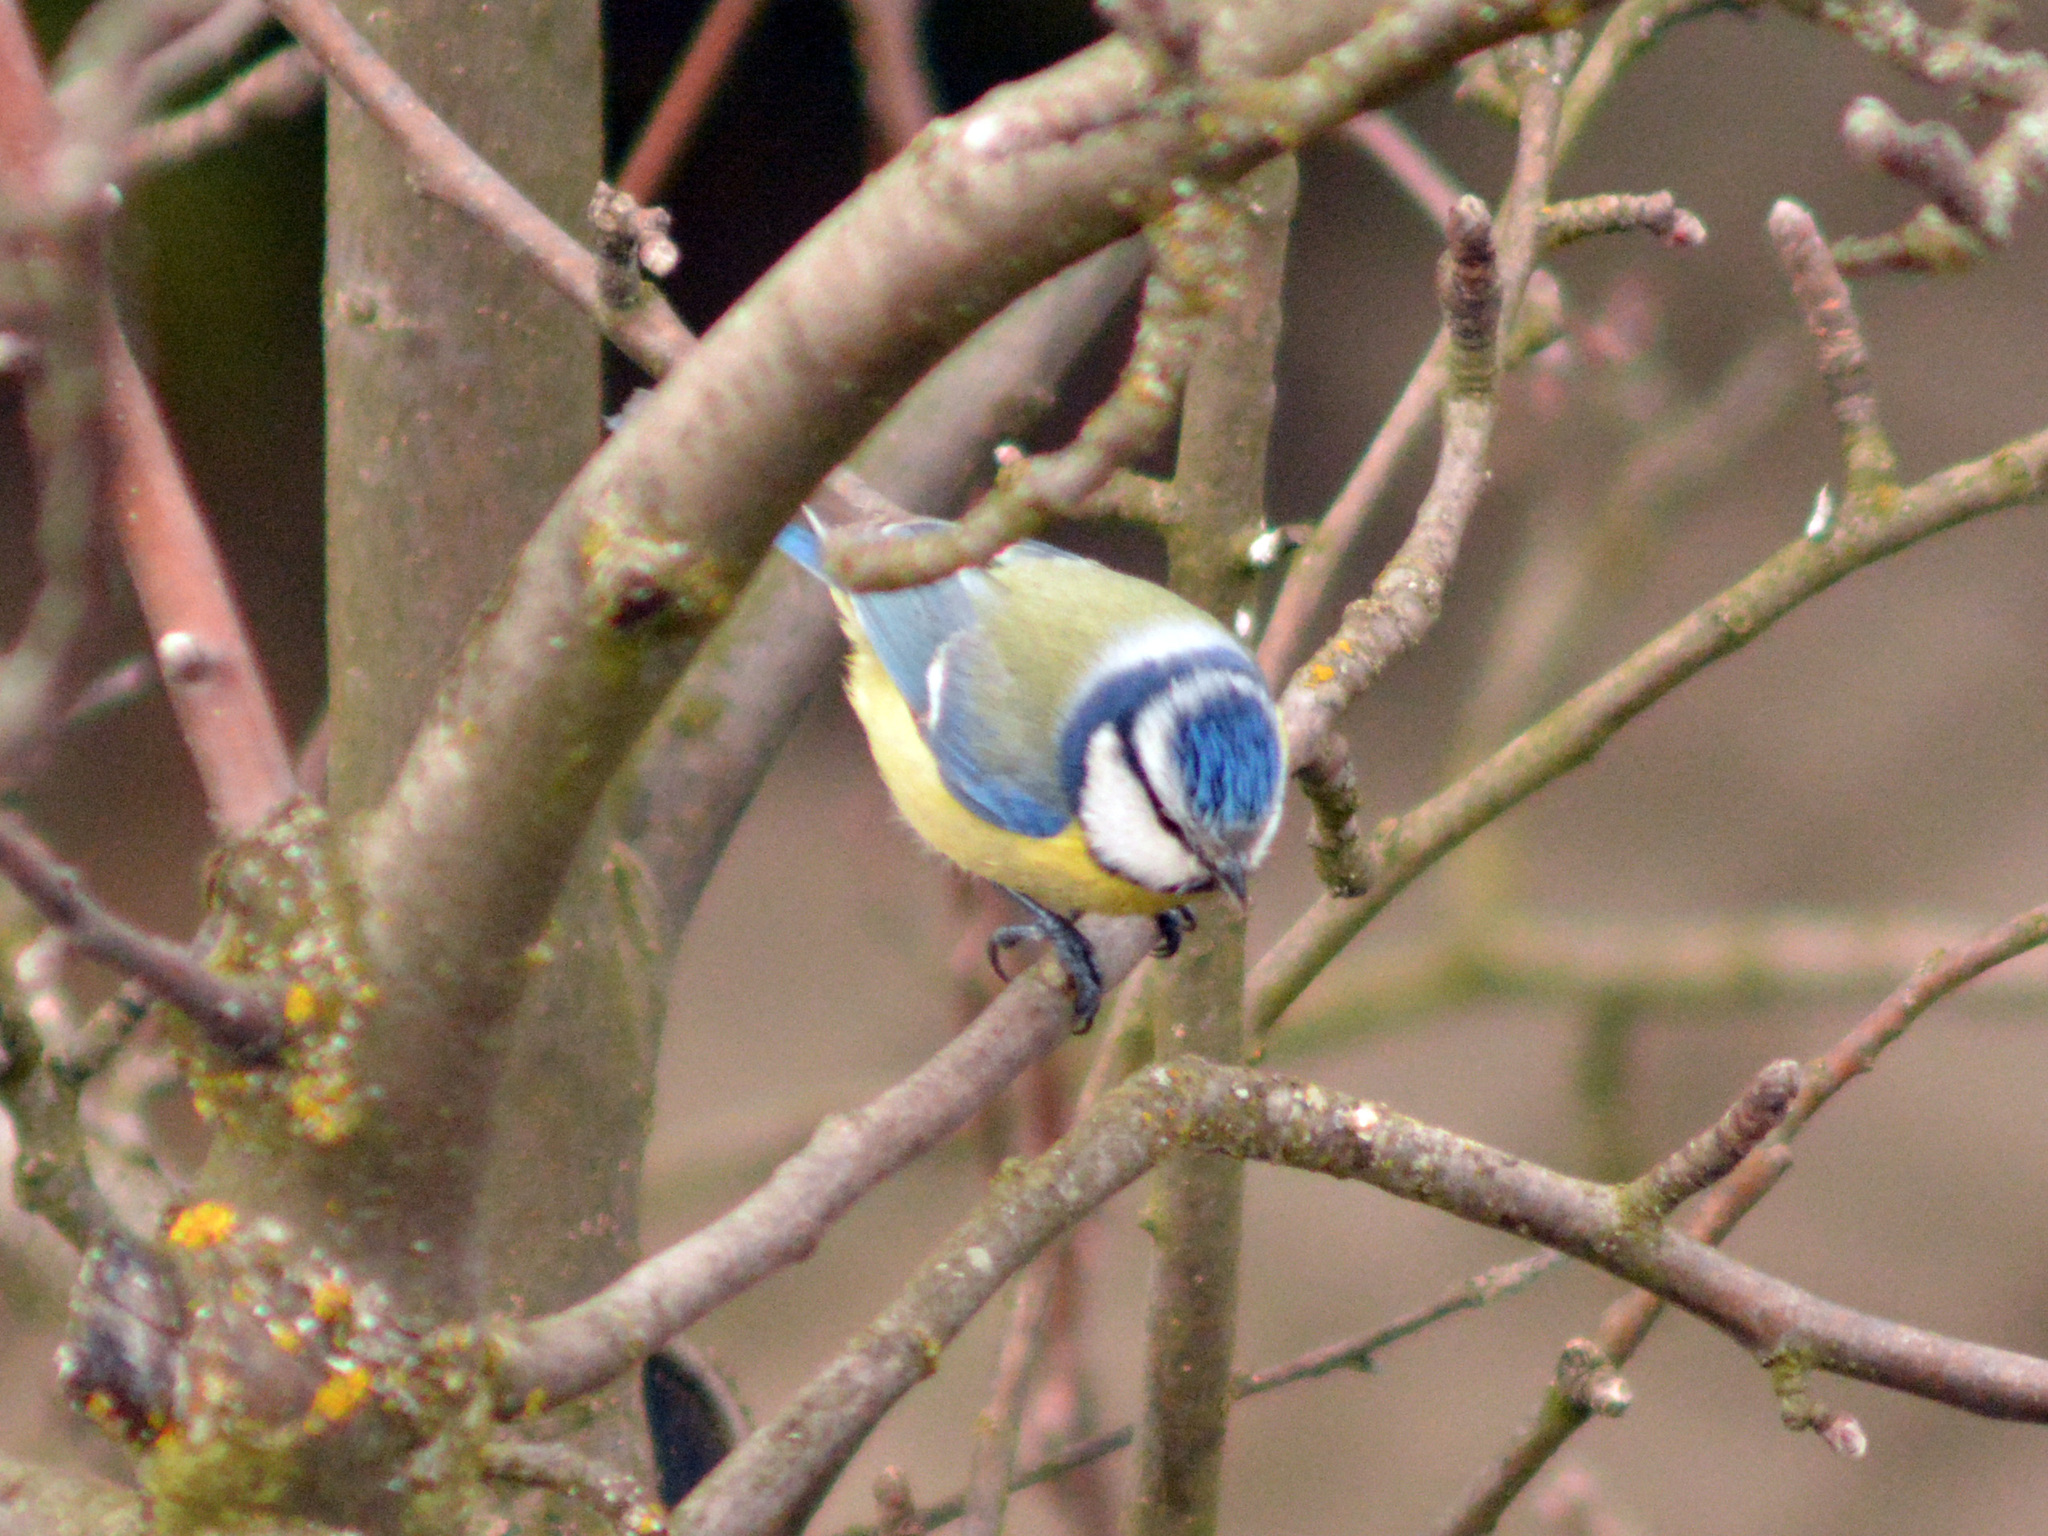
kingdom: Animalia
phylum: Chordata
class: Aves
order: Passeriformes
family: Paridae
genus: Cyanistes
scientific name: Cyanistes caeruleus
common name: Eurasian blue tit
